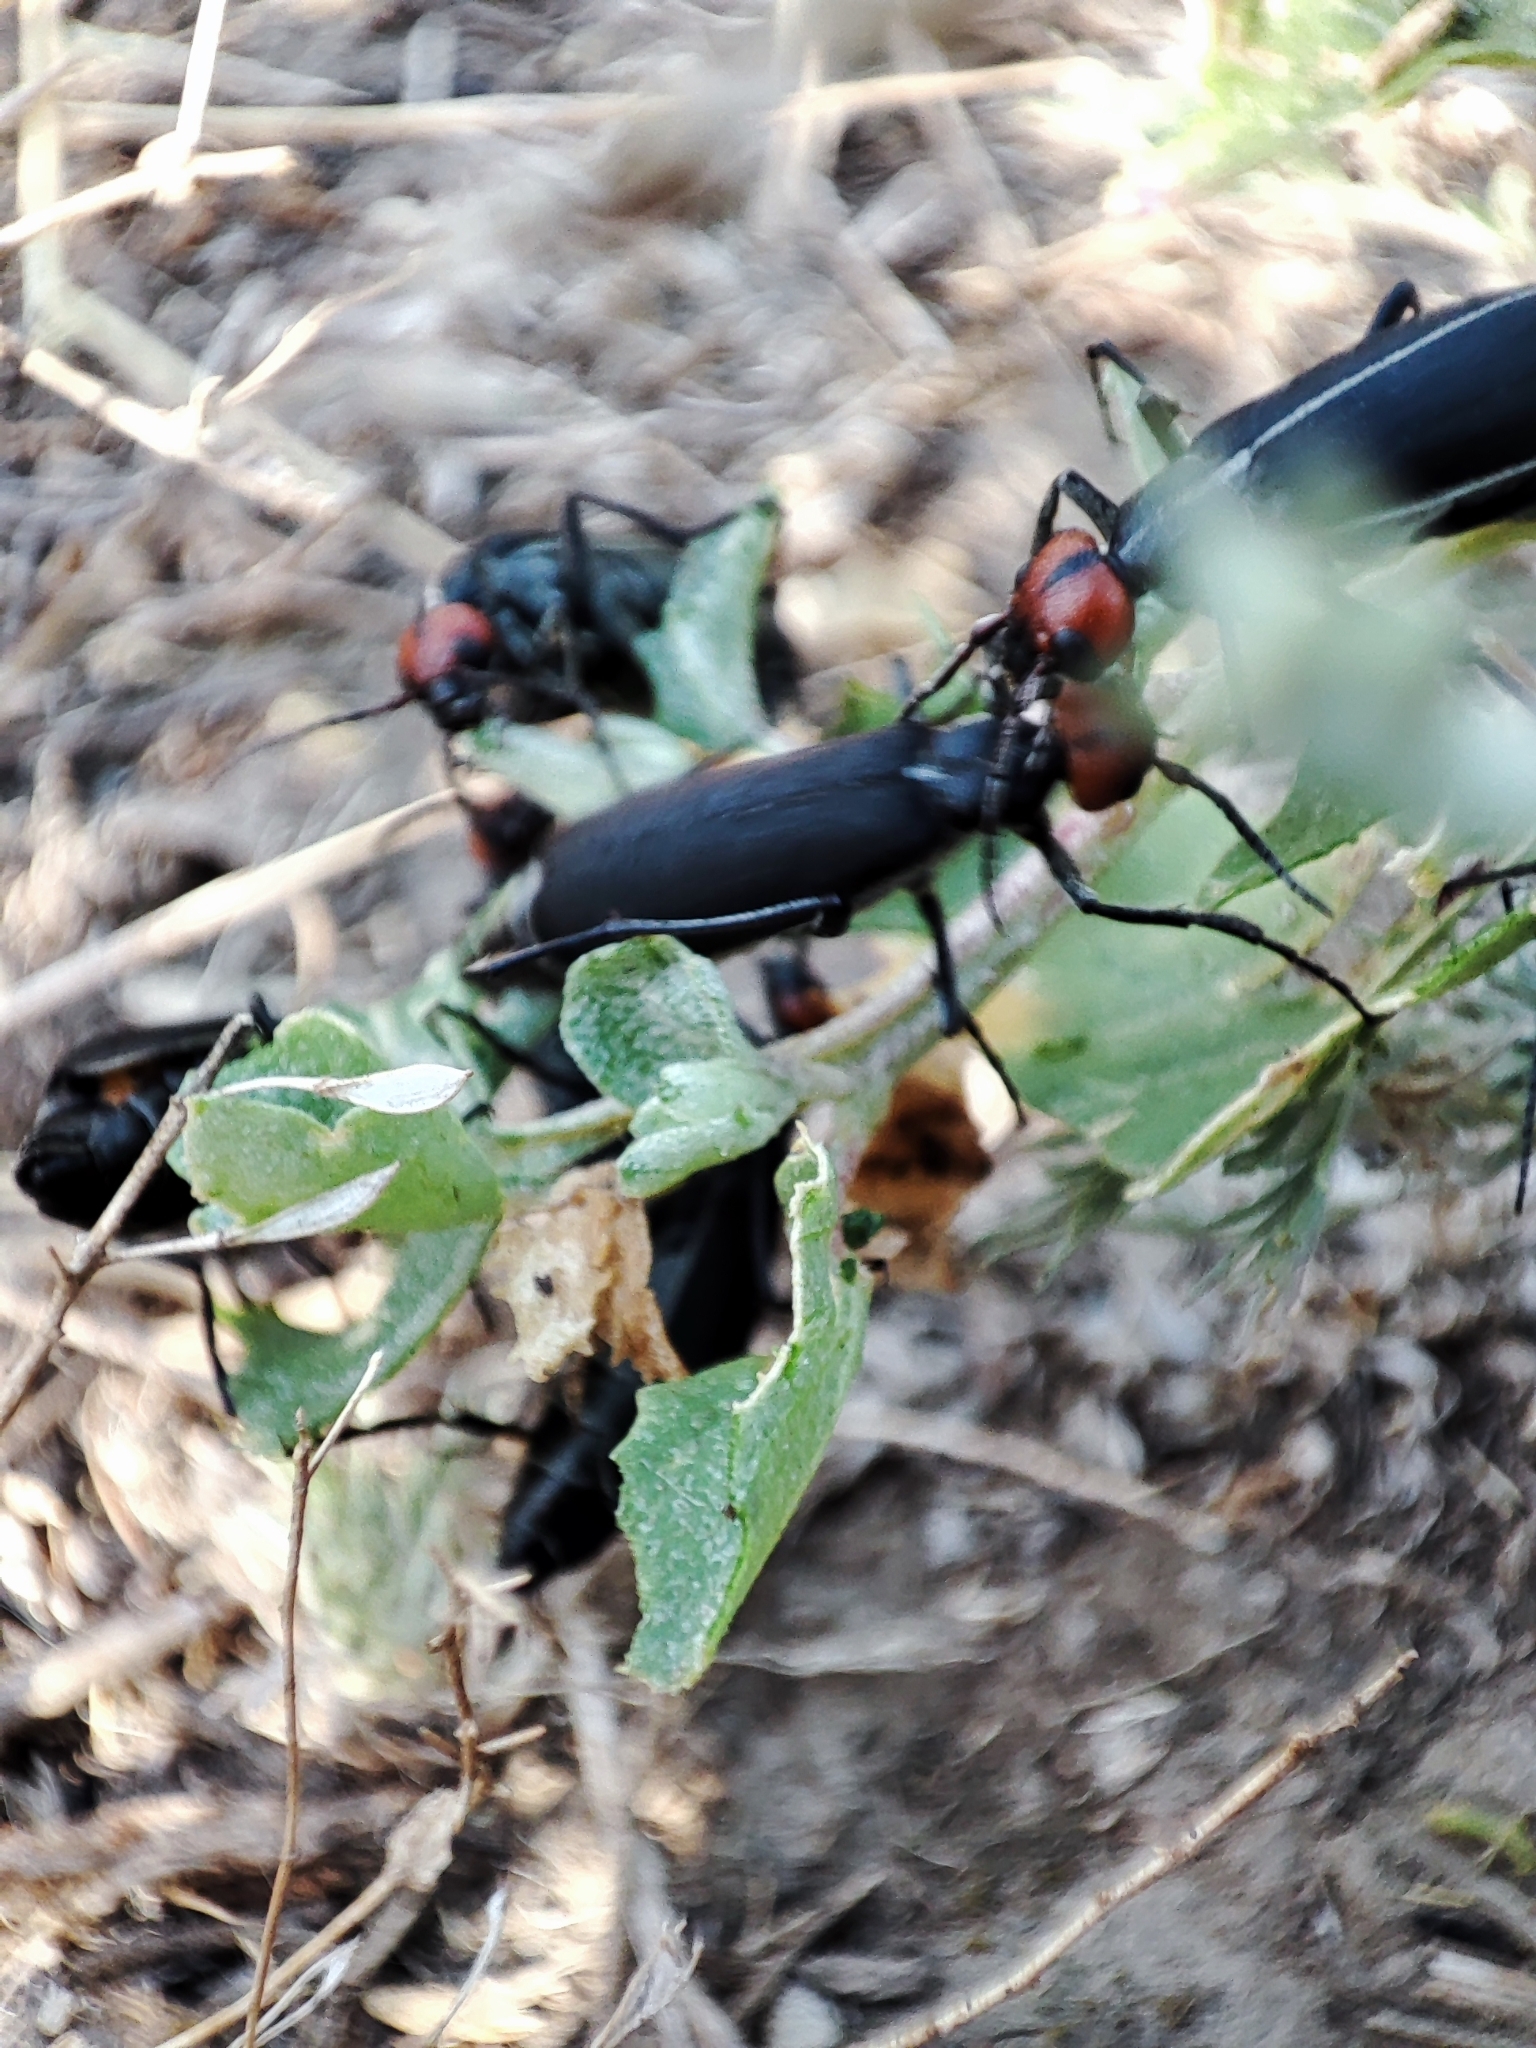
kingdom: Animalia
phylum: Arthropoda
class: Insecta
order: Coleoptera
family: Meloidae
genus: Epicauta
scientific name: Epicauta rufidorsum
